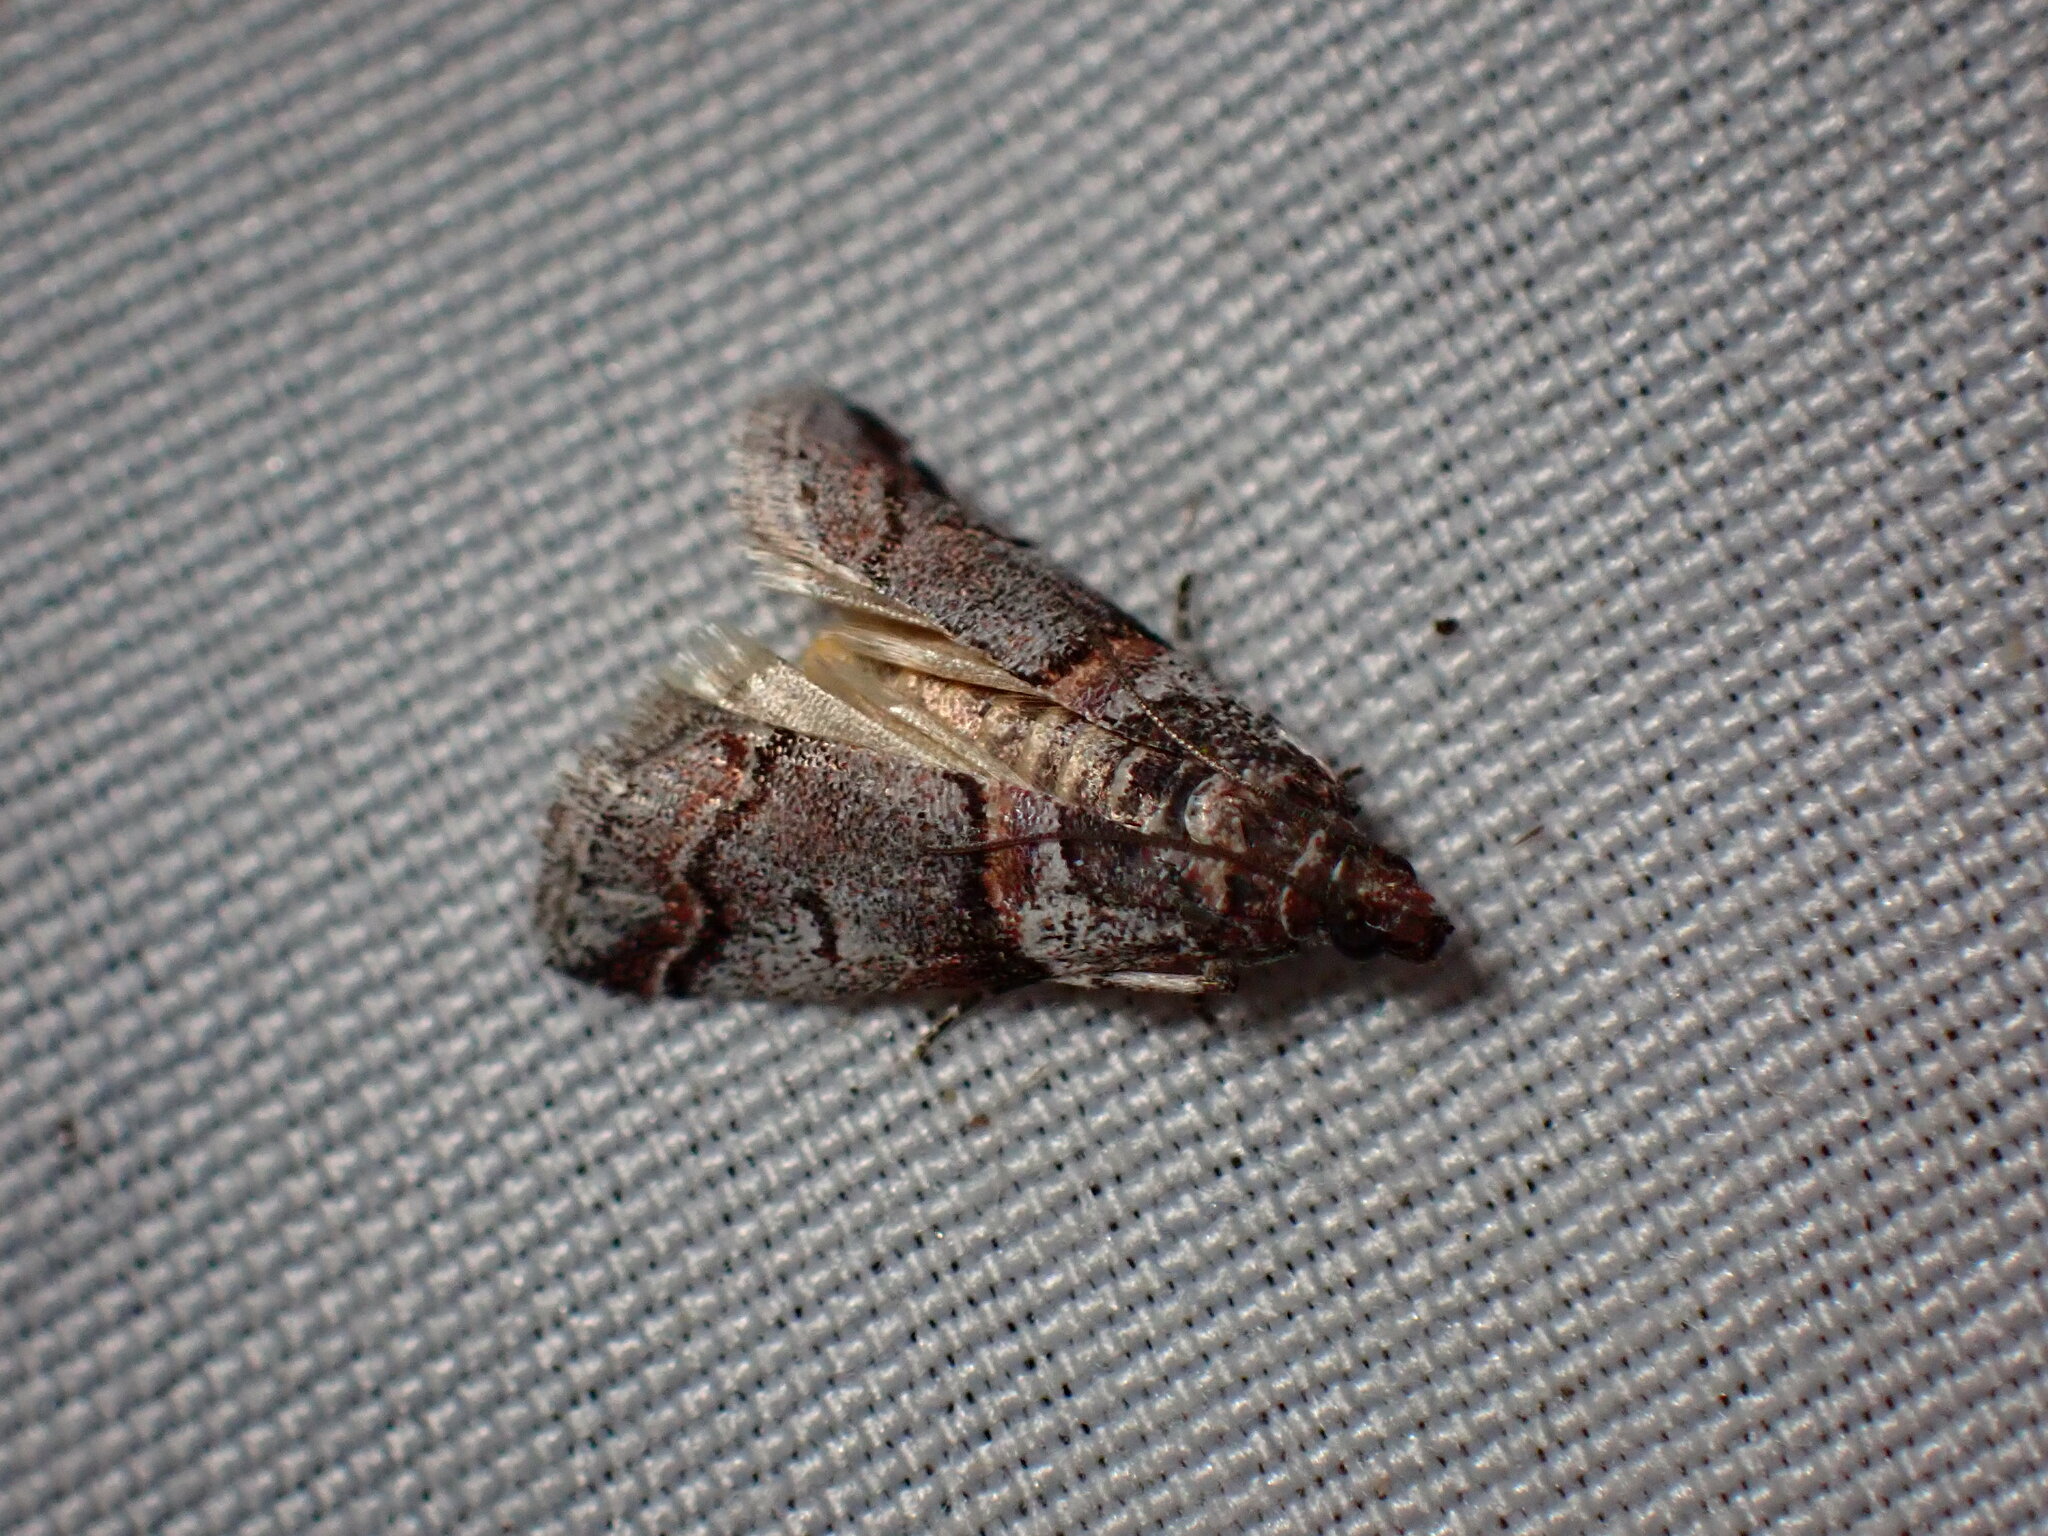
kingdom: Animalia
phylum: Arthropoda
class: Insecta
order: Lepidoptera
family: Pyralidae
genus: Acrobasis
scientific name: Acrobasis tricolorella
